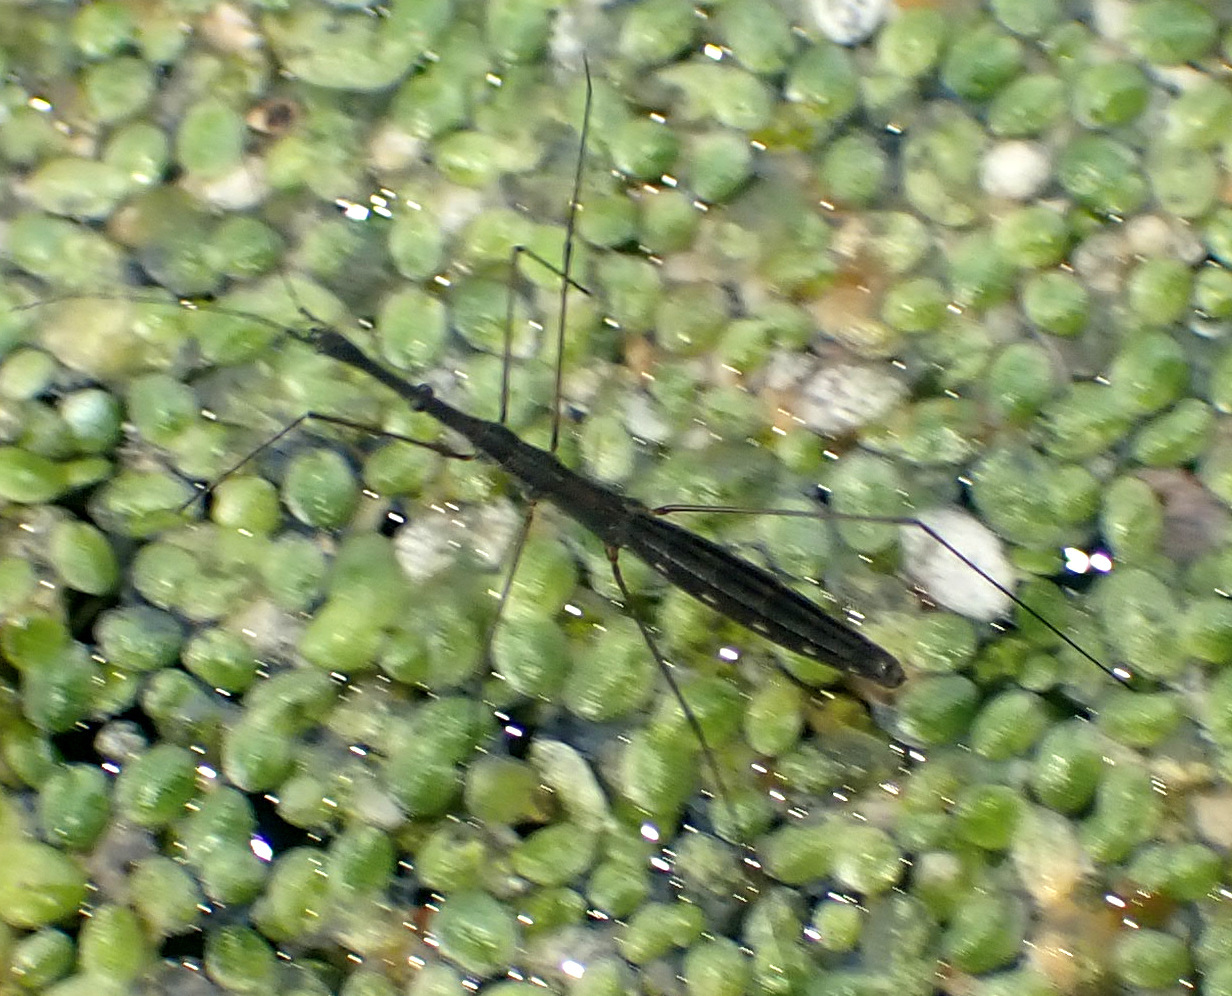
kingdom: Animalia
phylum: Arthropoda
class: Insecta
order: Hemiptera
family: Hydrometridae
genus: Hydrometra
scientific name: Hydrometra stagnorum
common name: Water measurer
